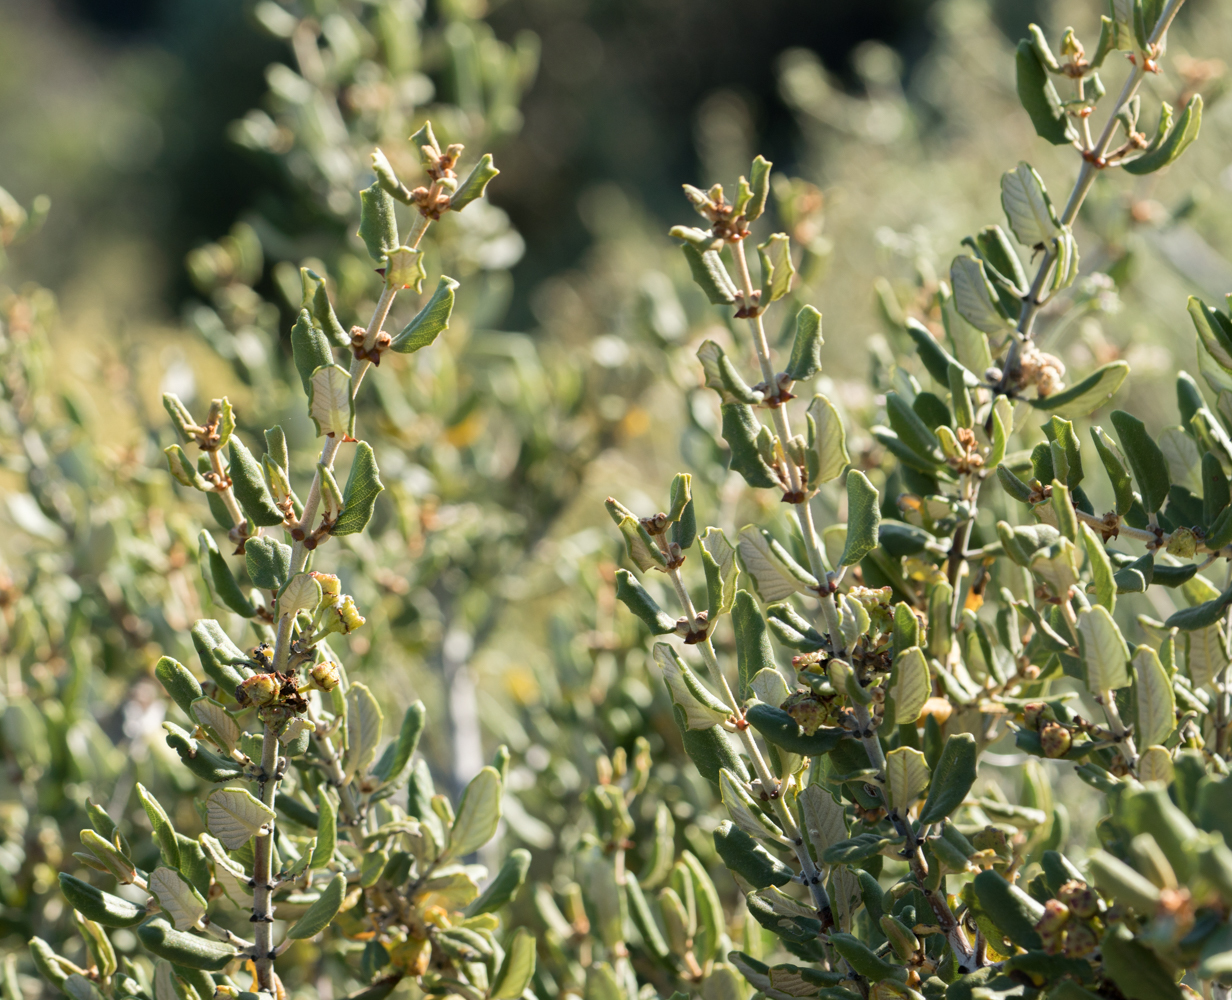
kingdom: Plantae
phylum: Tracheophyta
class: Magnoliopsida
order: Rosales
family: Rhamnaceae
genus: Ceanothus
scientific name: Ceanothus crassifolius
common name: Hoaryleaf ceanothus
